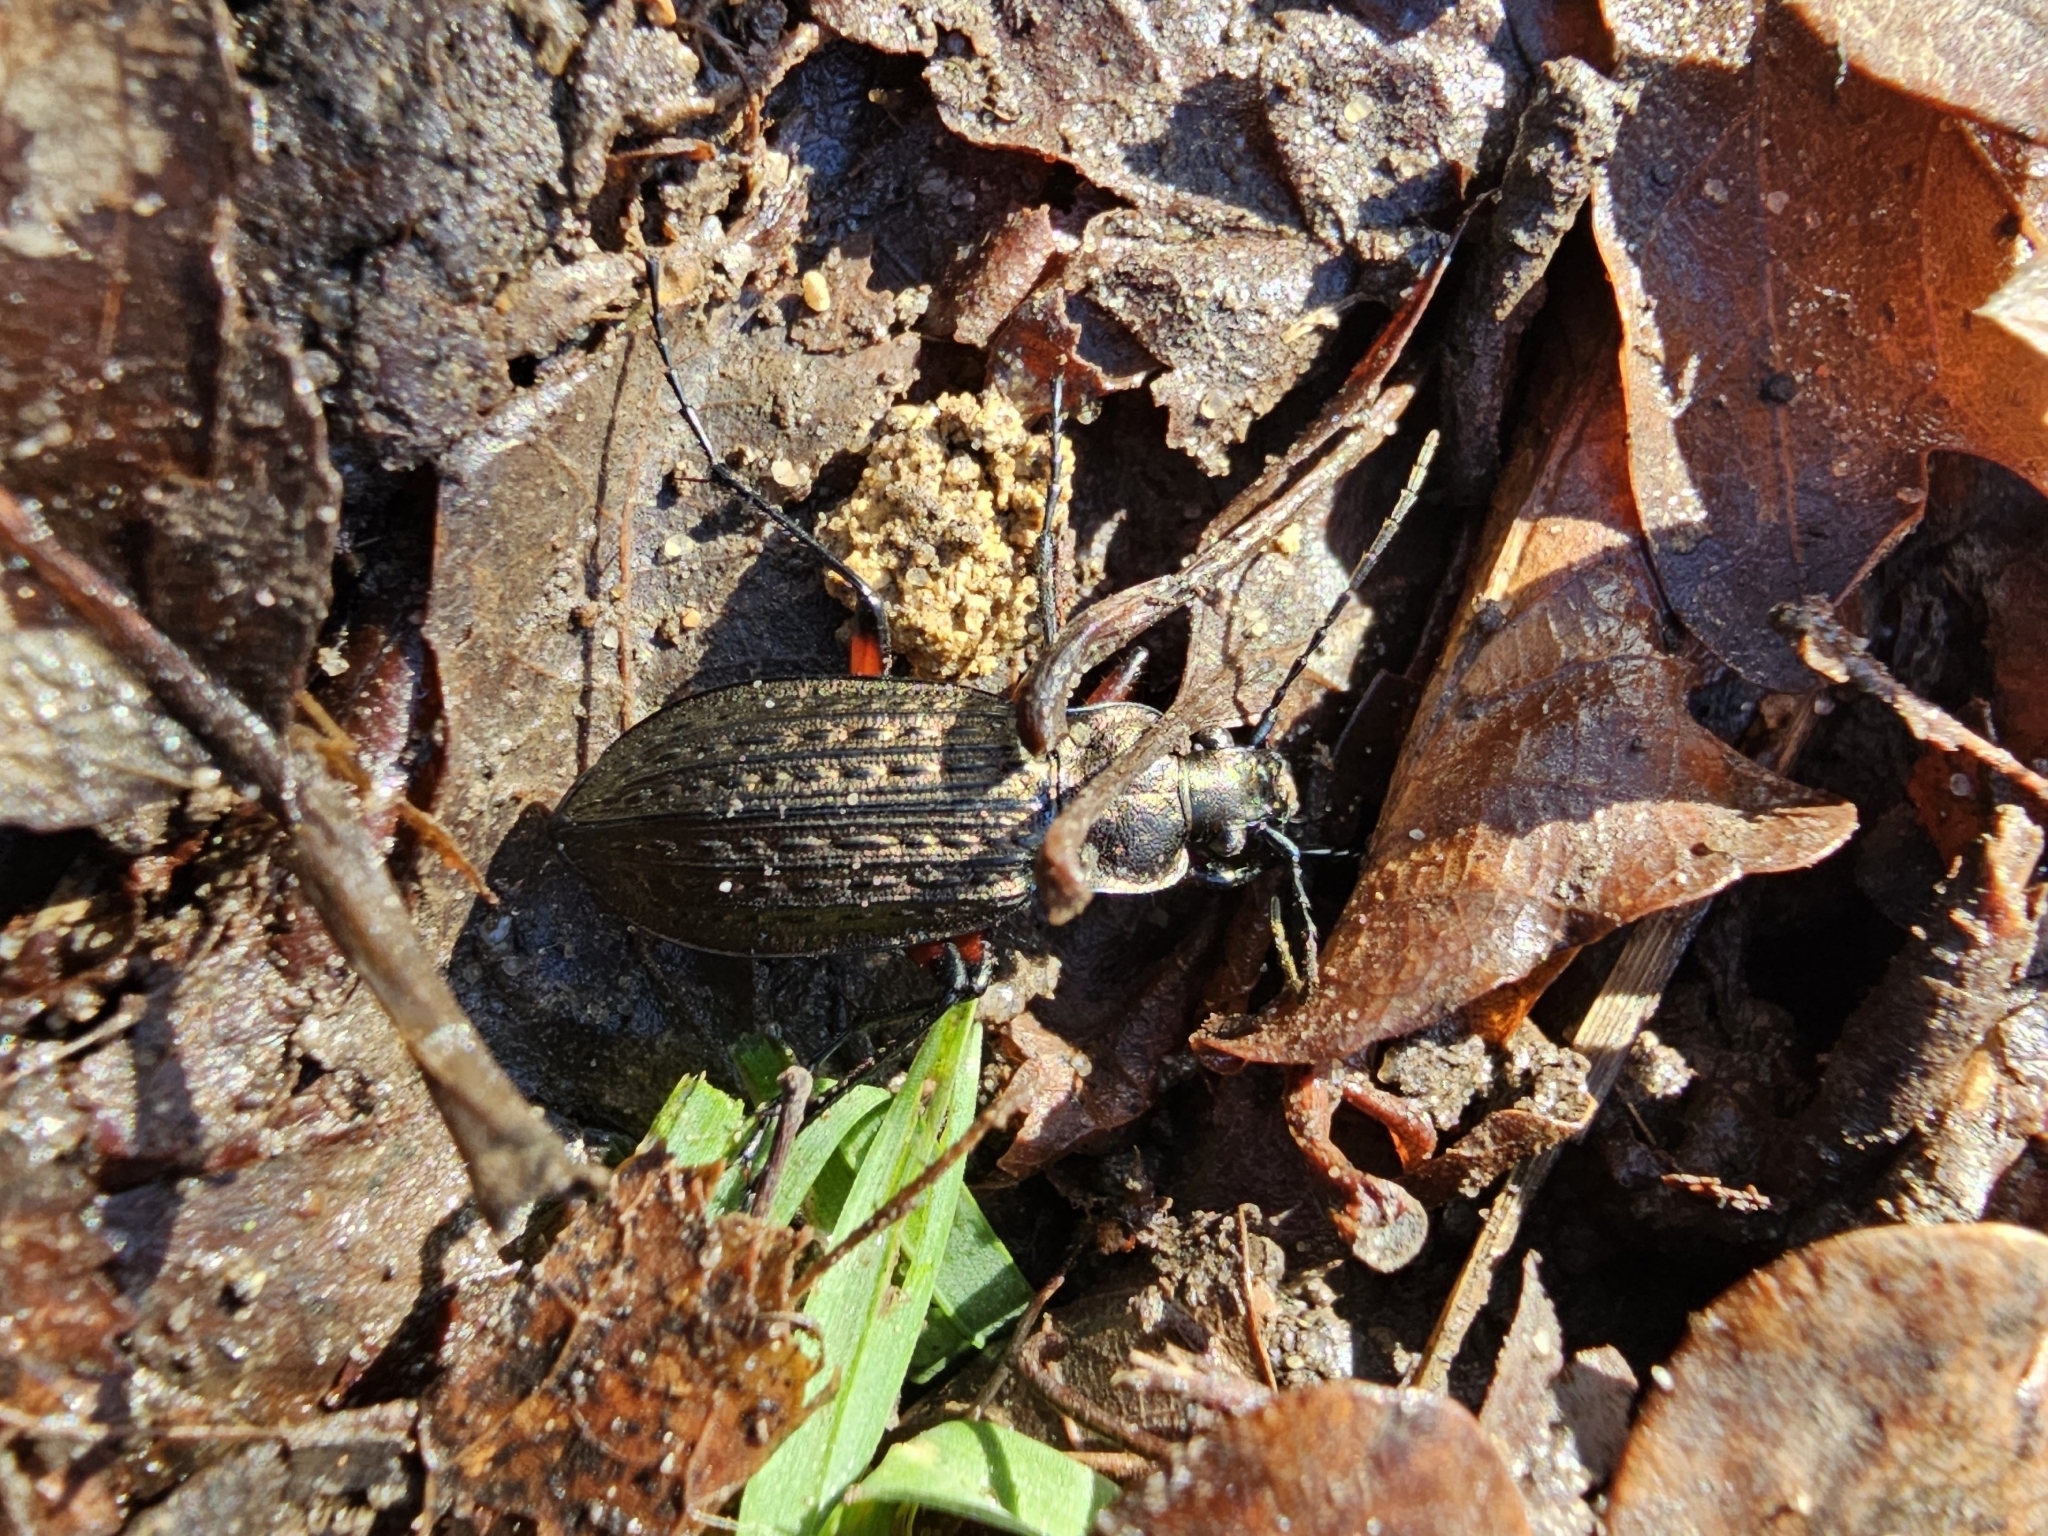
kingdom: Animalia
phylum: Arthropoda
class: Insecta
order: Coleoptera
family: Carabidae
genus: Carabus
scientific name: Carabus granulatus
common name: Granulate ground beetle
